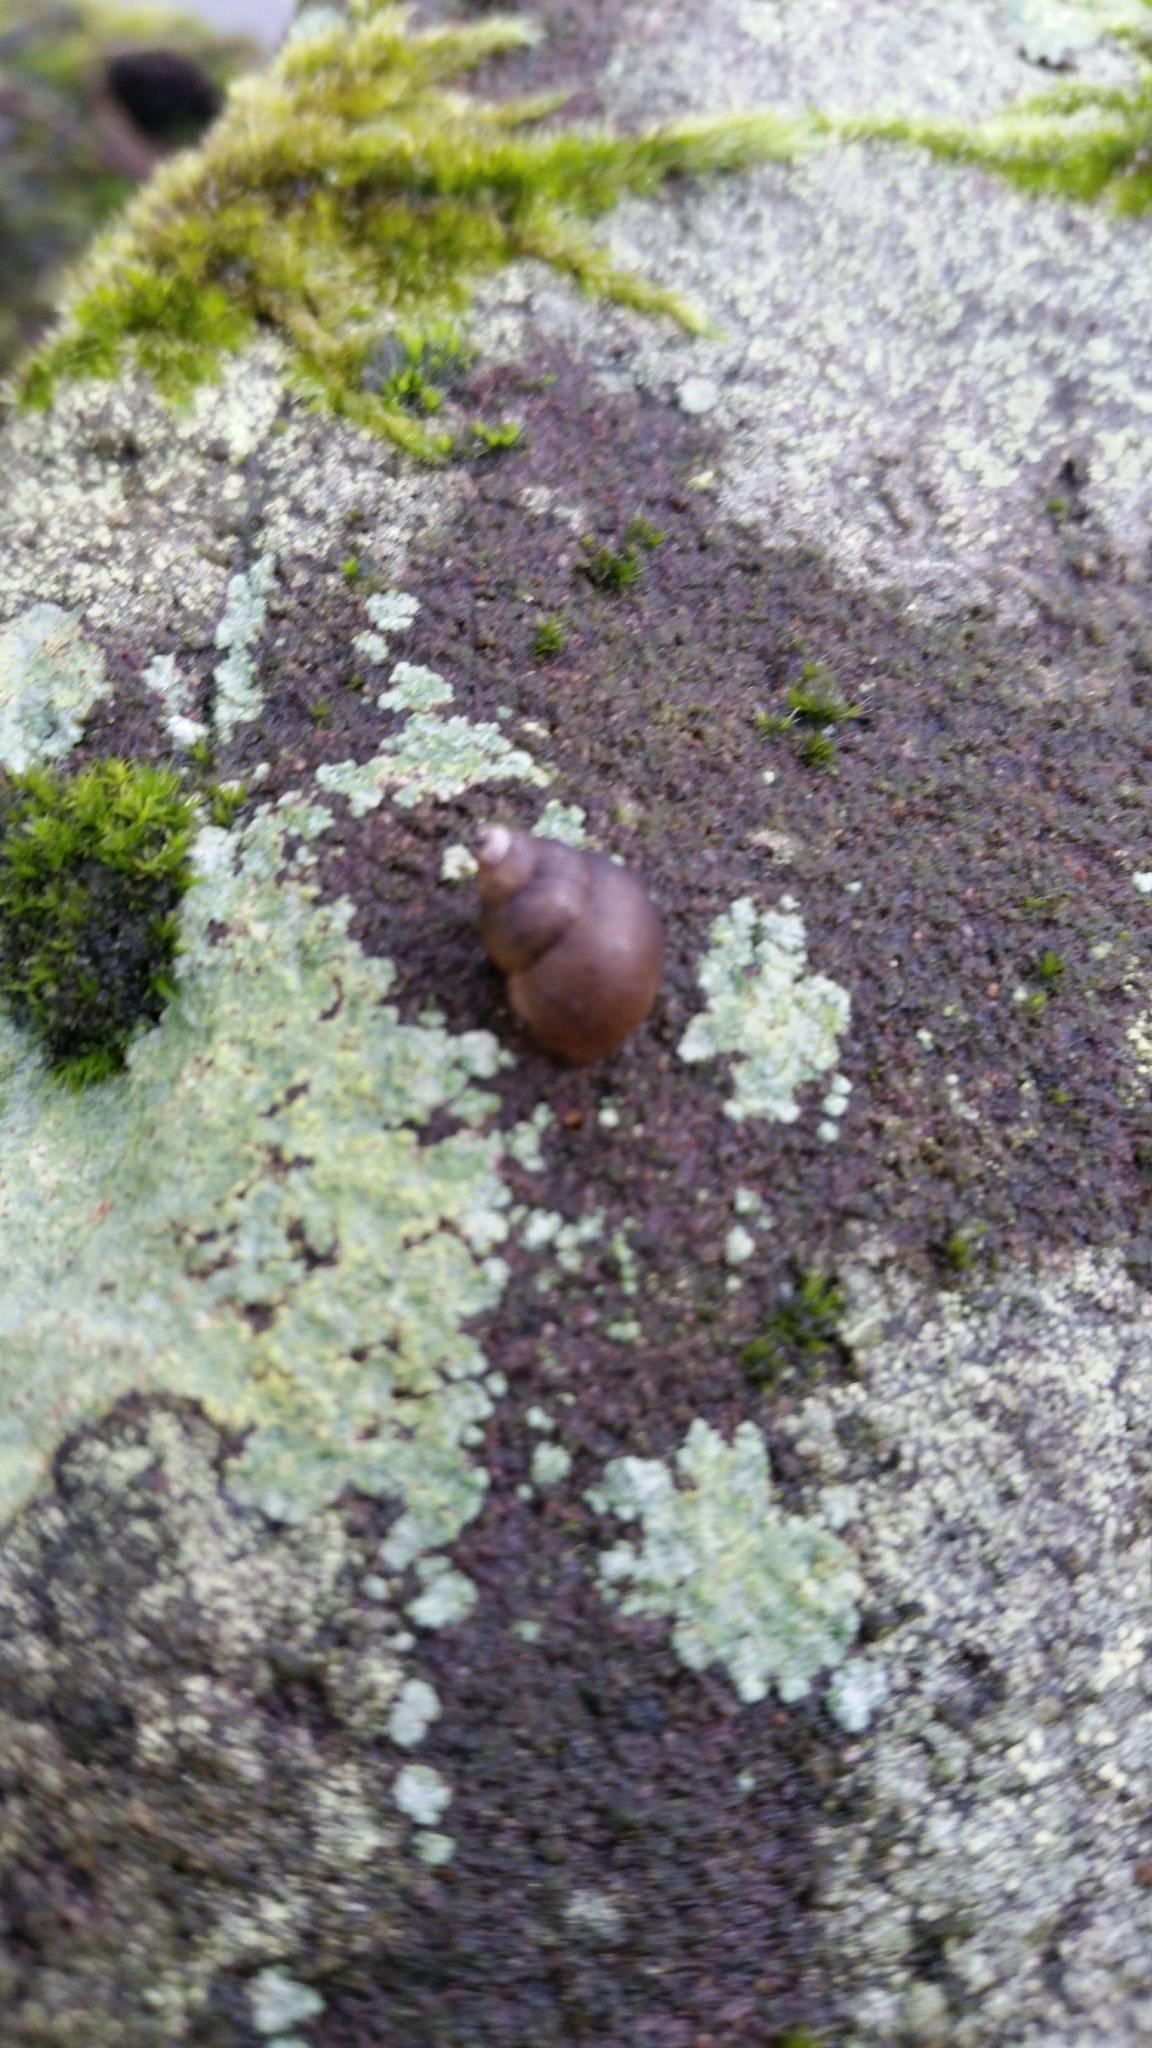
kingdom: Animalia
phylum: Mollusca
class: Gastropoda
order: Littorinimorpha
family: Bithyniidae
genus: Bithynia
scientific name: Bithynia tentaculata
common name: Common bithynia
